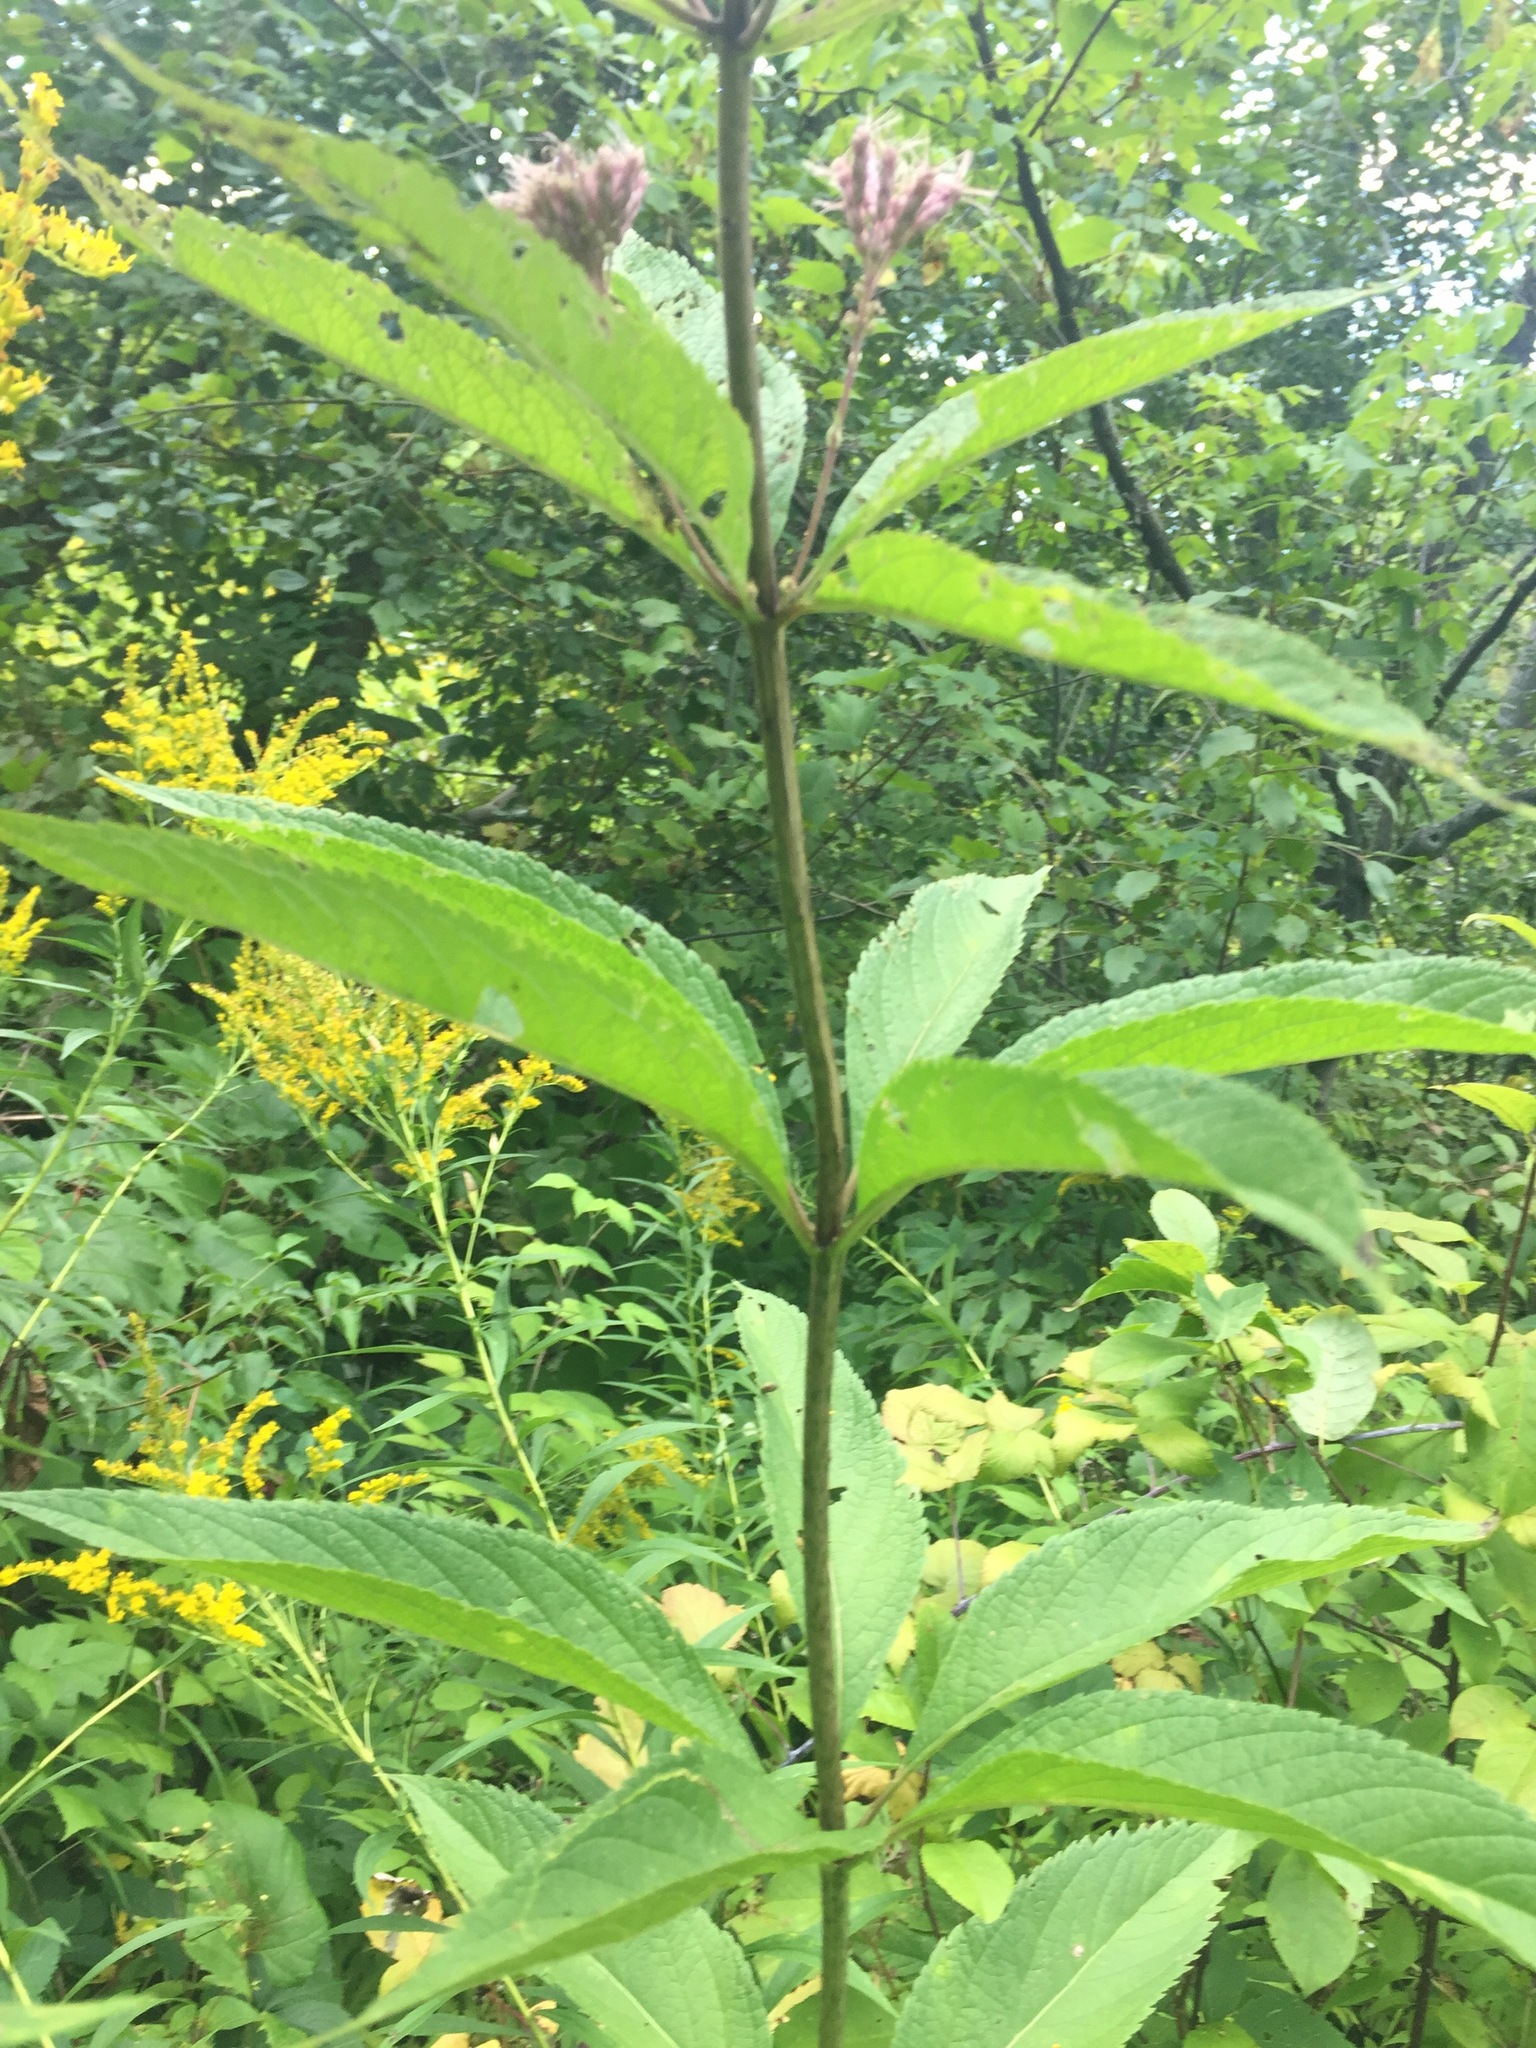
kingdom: Plantae
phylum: Tracheophyta
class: Magnoliopsida
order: Asterales
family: Asteraceae
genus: Eutrochium
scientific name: Eutrochium maculatum
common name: Spotted joe pye weed
